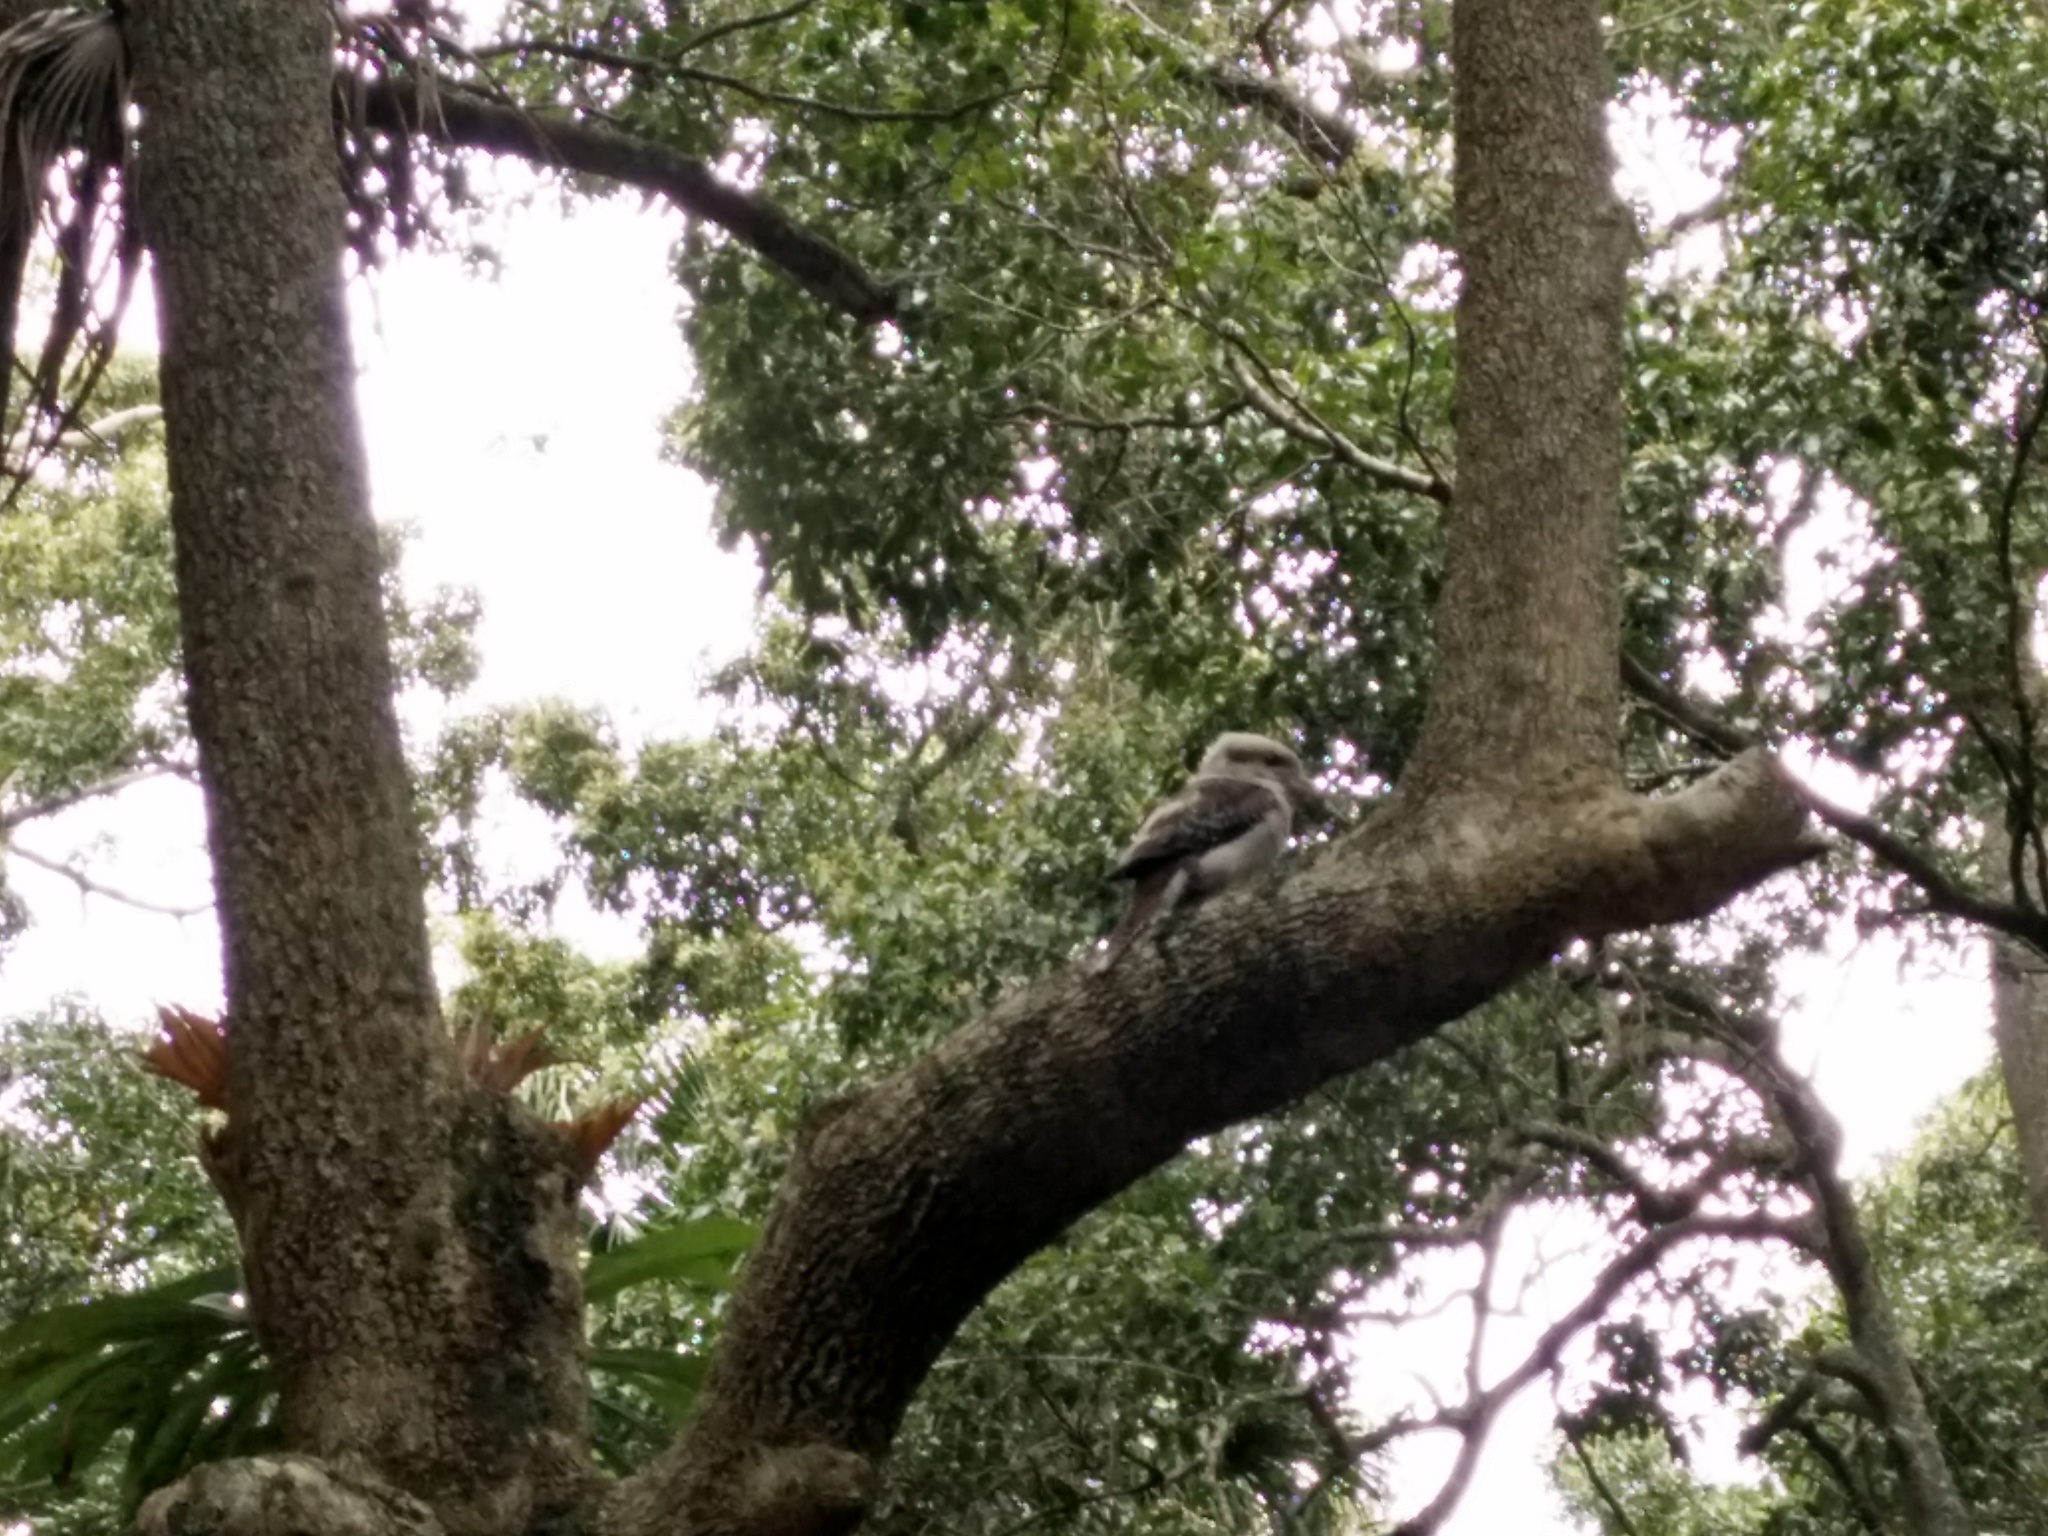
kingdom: Animalia
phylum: Chordata
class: Aves
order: Coraciiformes
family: Alcedinidae
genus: Dacelo
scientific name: Dacelo novaeguineae
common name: Laughing kookaburra
